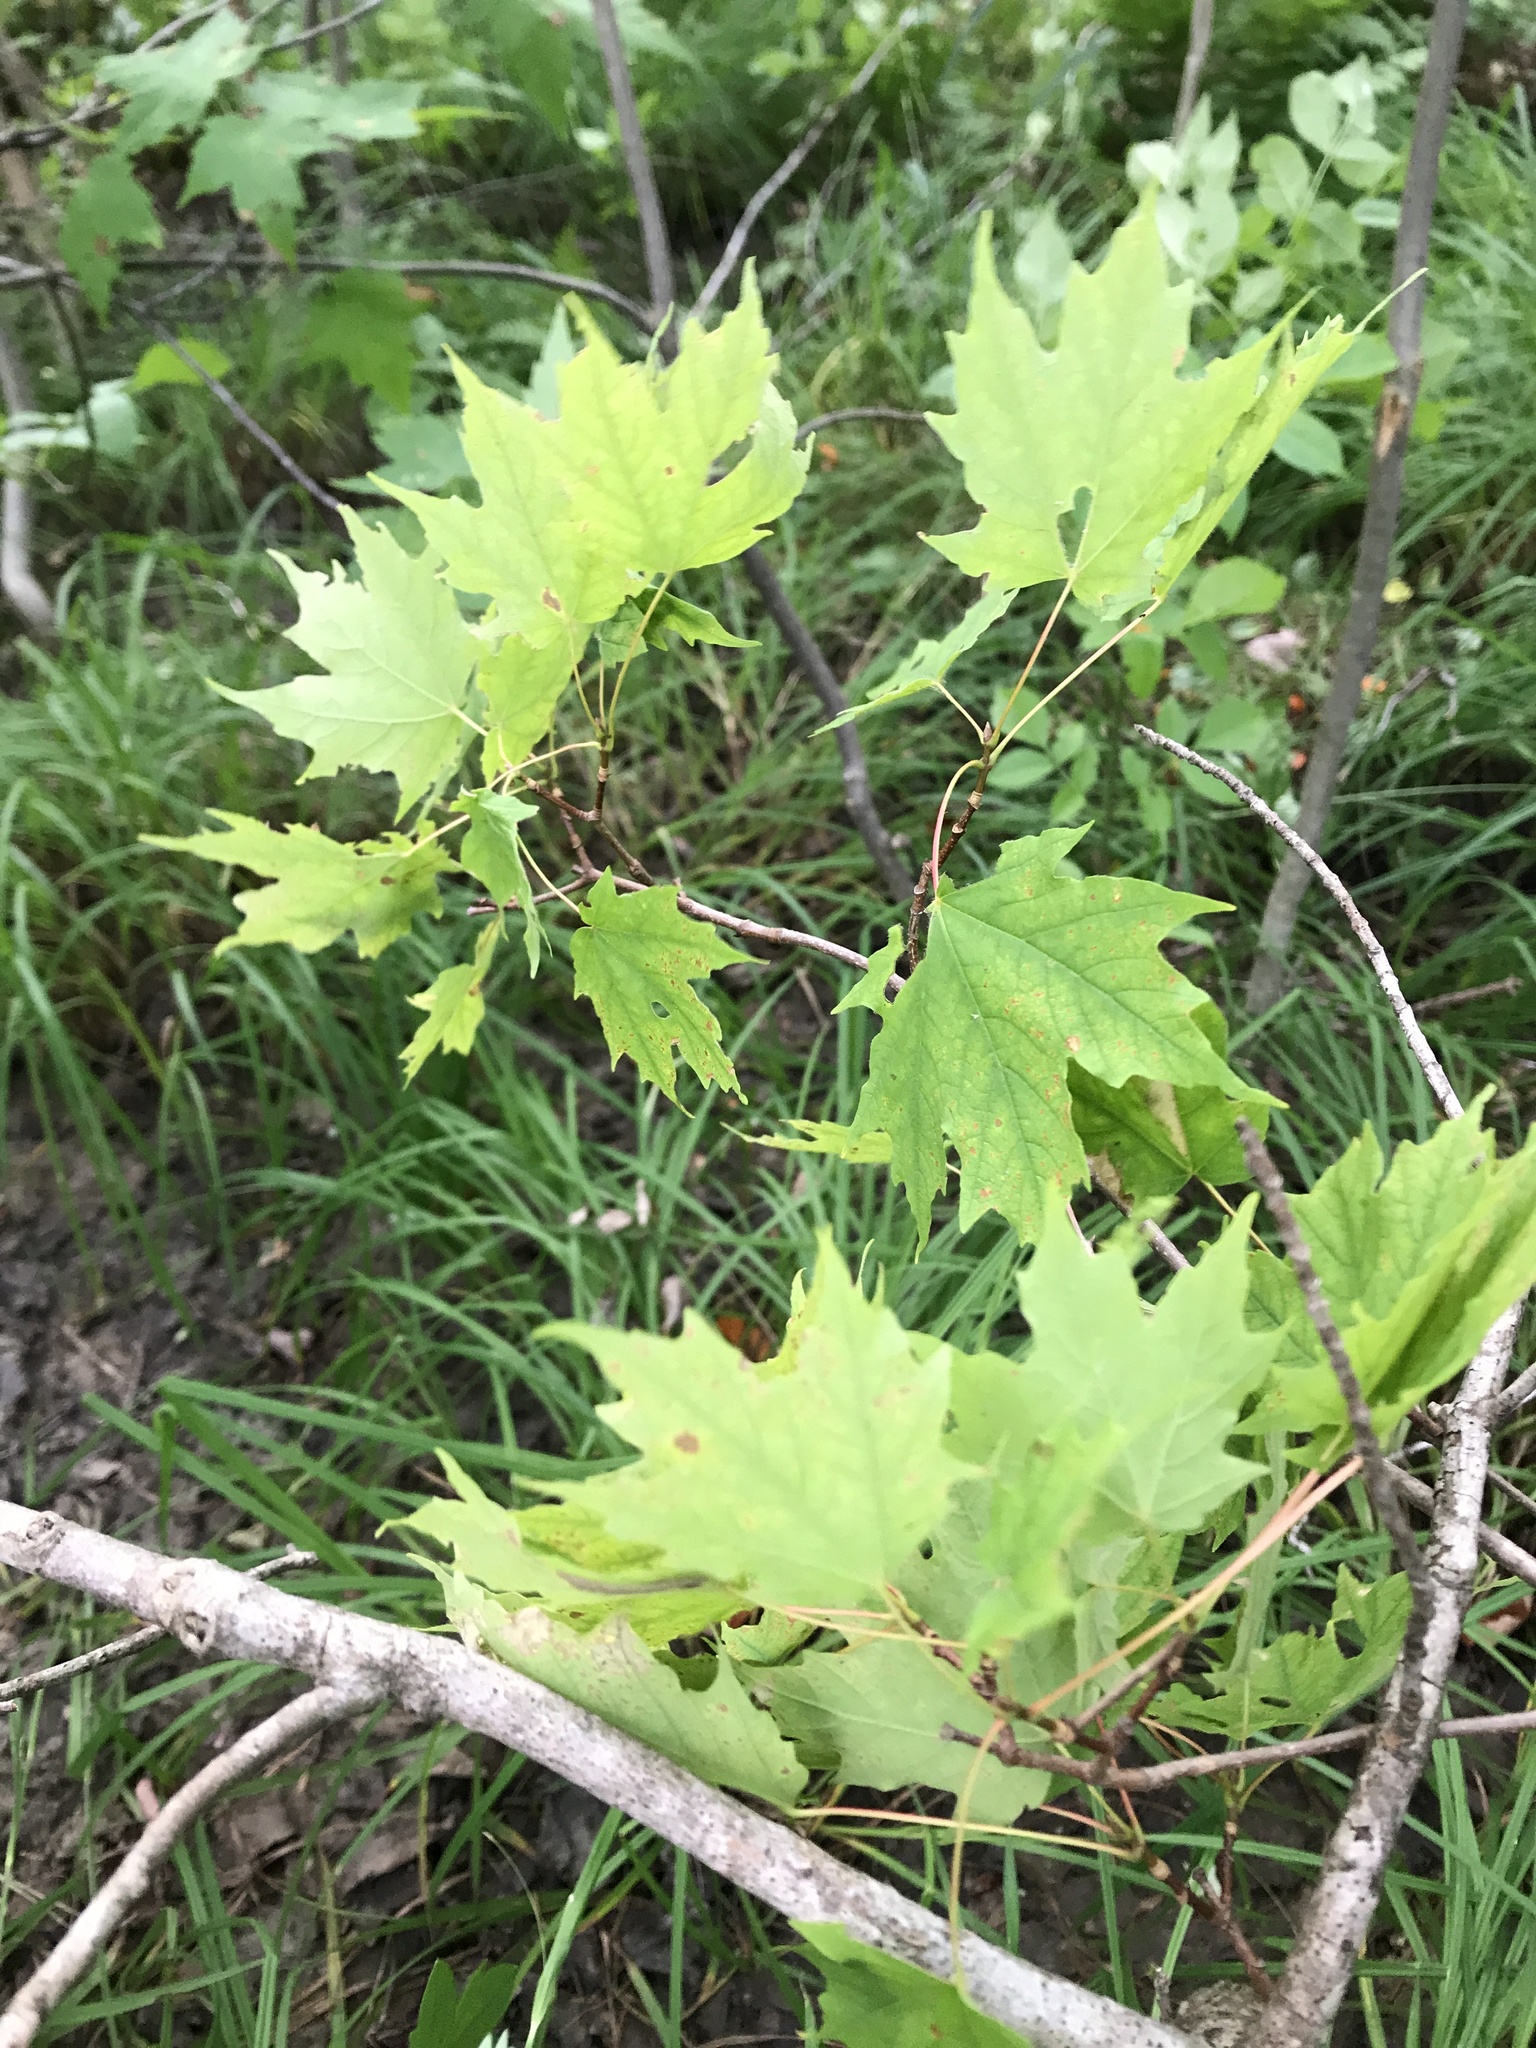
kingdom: Plantae
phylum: Tracheophyta
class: Magnoliopsida
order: Sapindales
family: Sapindaceae
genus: Acer
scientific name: Acer saccharum
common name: Sugar maple
